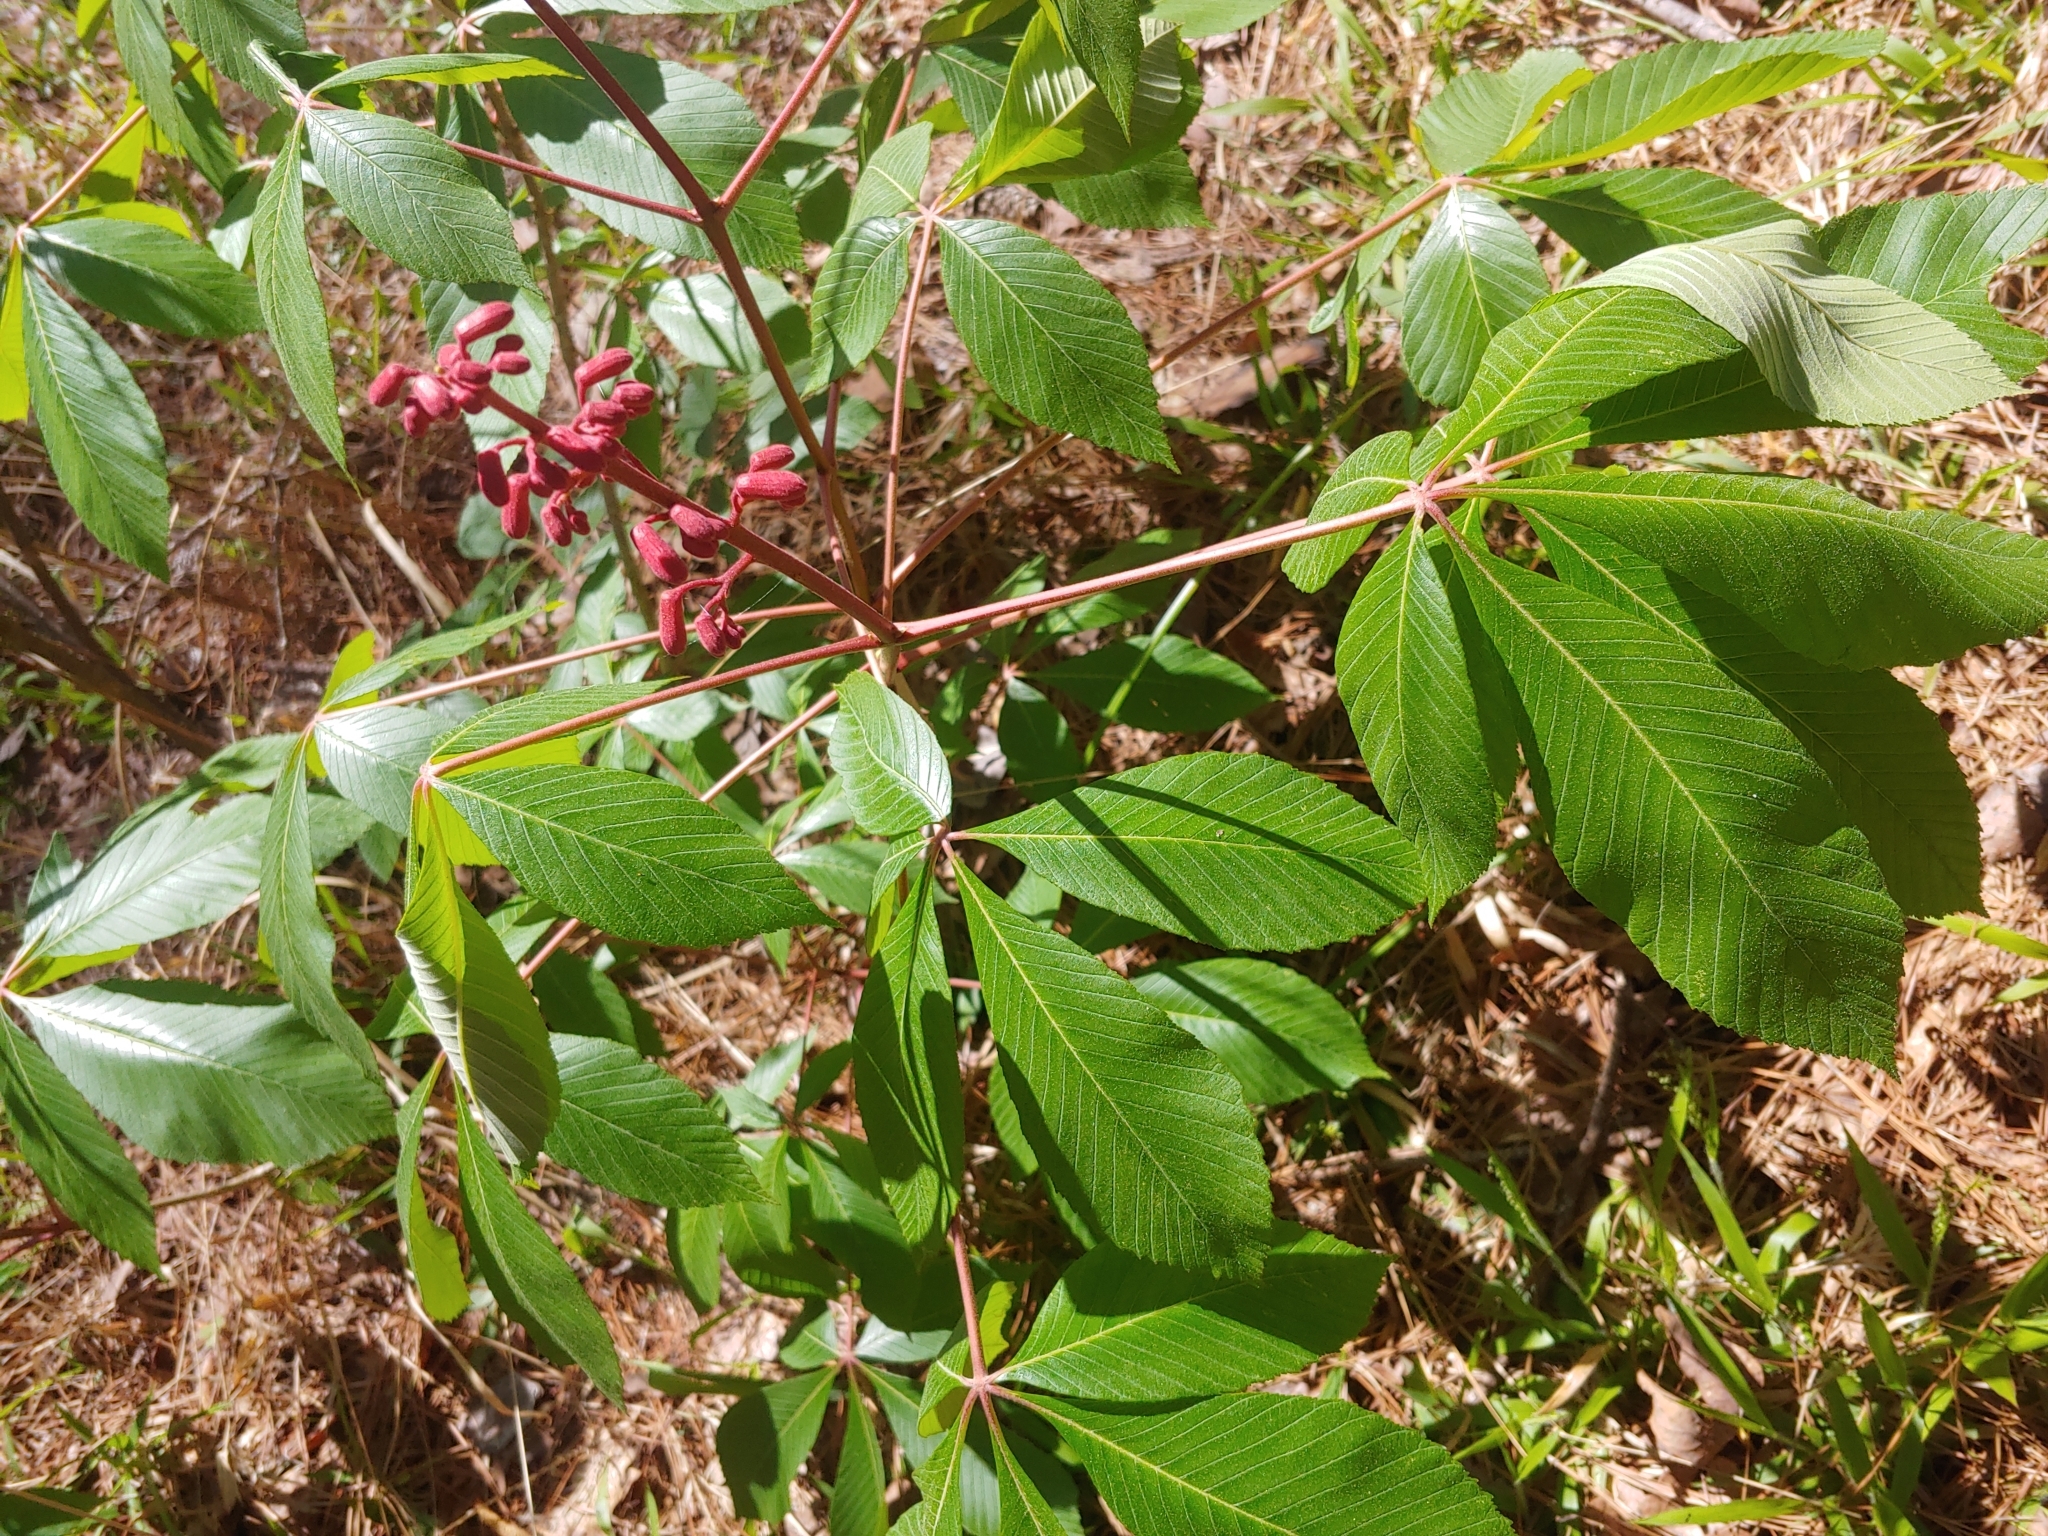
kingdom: Plantae
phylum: Tracheophyta
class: Magnoliopsida
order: Sapindales
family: Sapindaceae
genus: Aesculus
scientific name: Aesculus pavia
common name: Red buckeye
